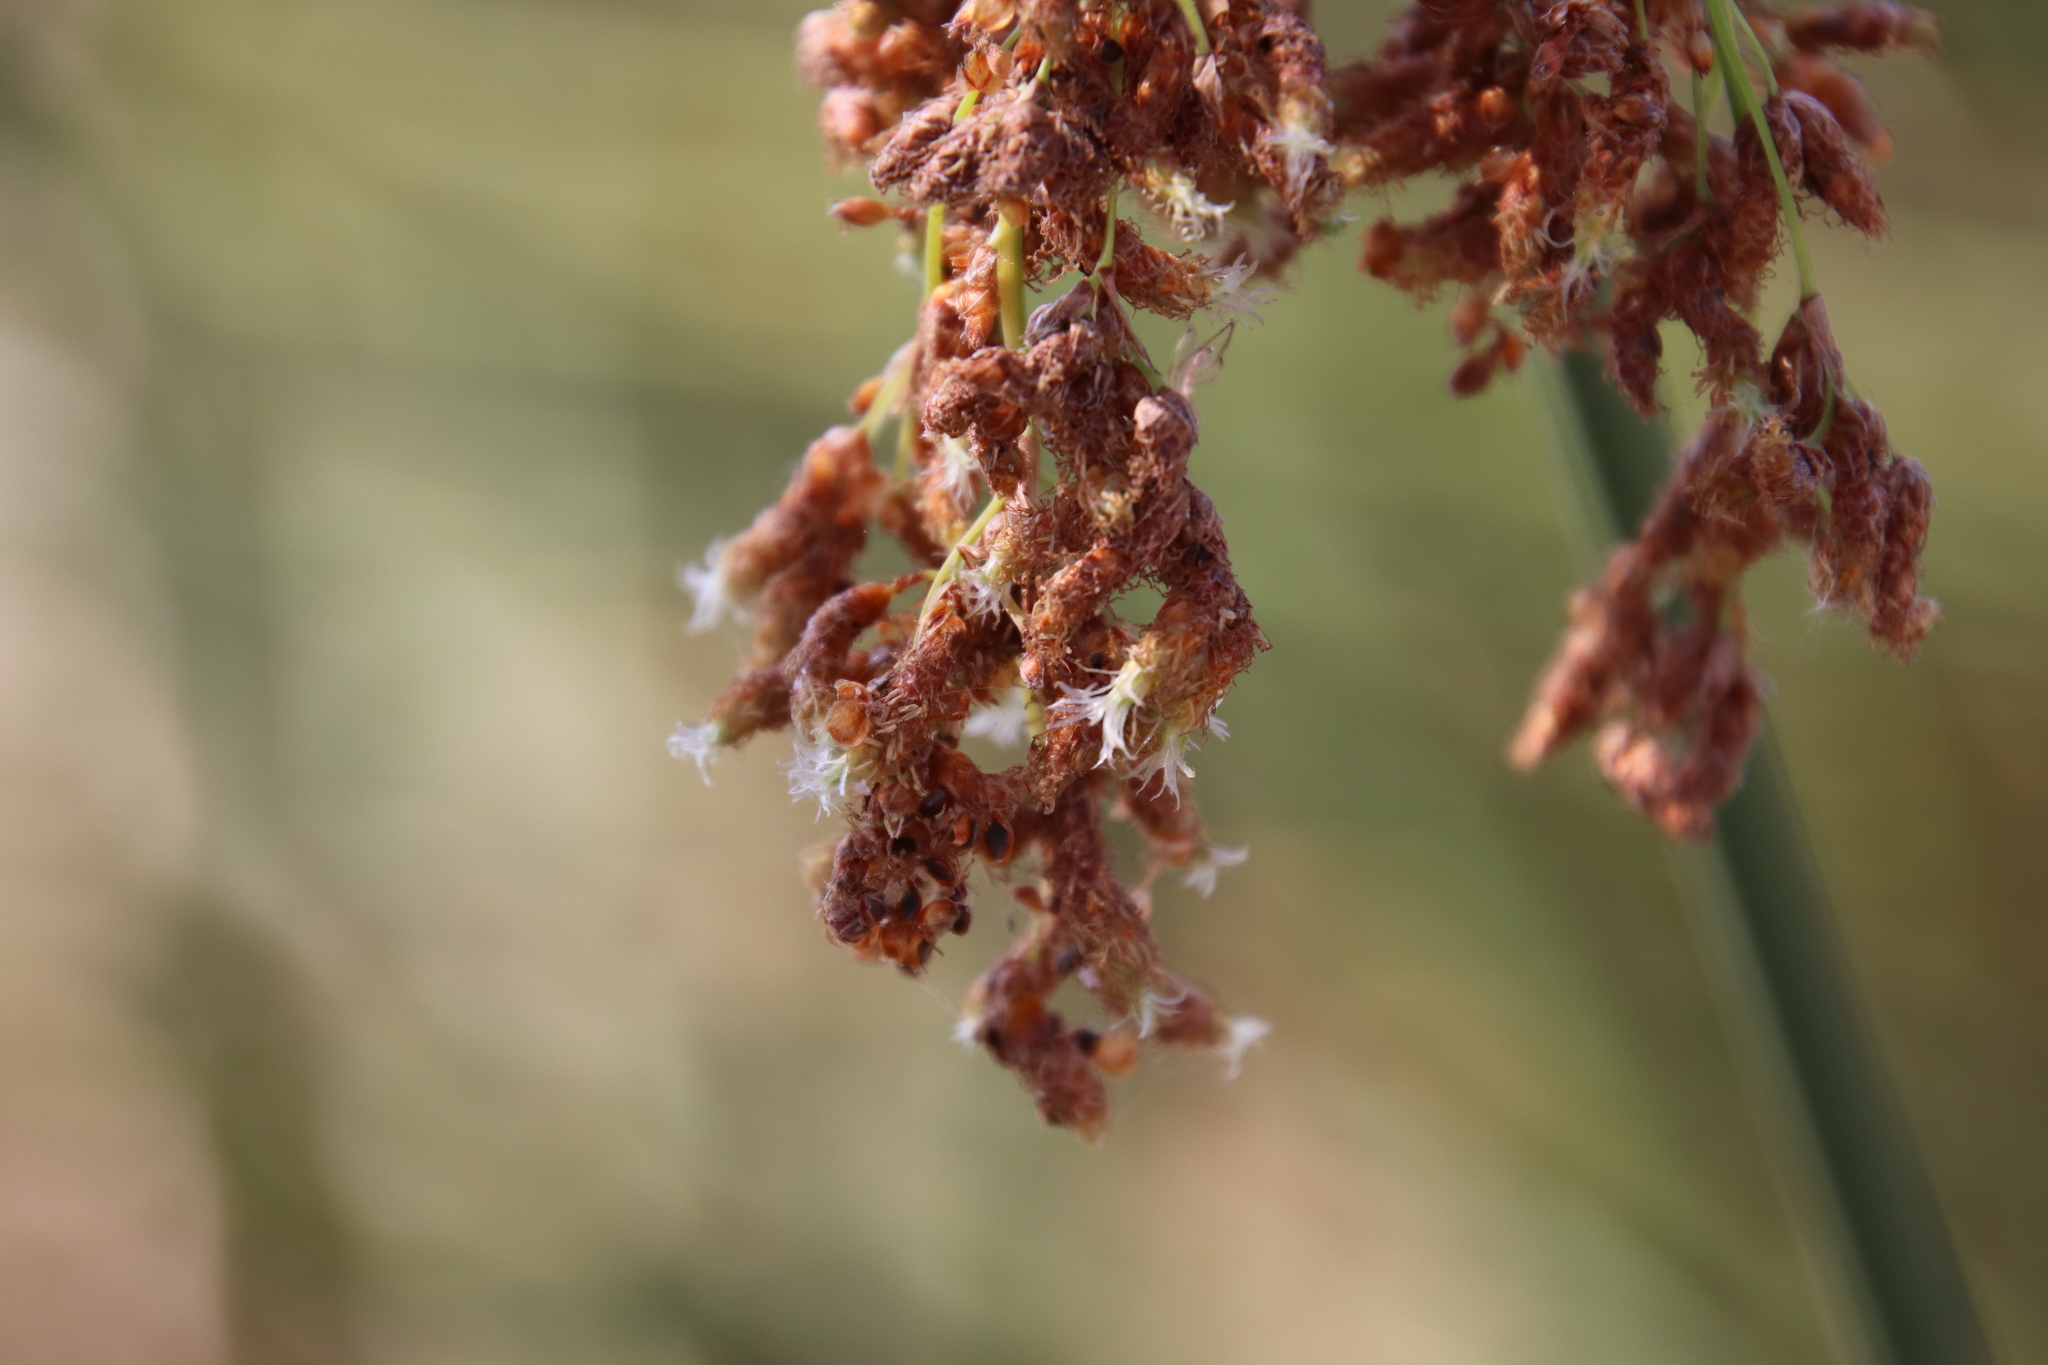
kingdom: Plantae
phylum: Tracheophyta
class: Liliopsida
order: Poales
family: Cyperaceae
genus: Schoenoplectus
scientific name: Schoenoplectus californicus
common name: California bulrush
